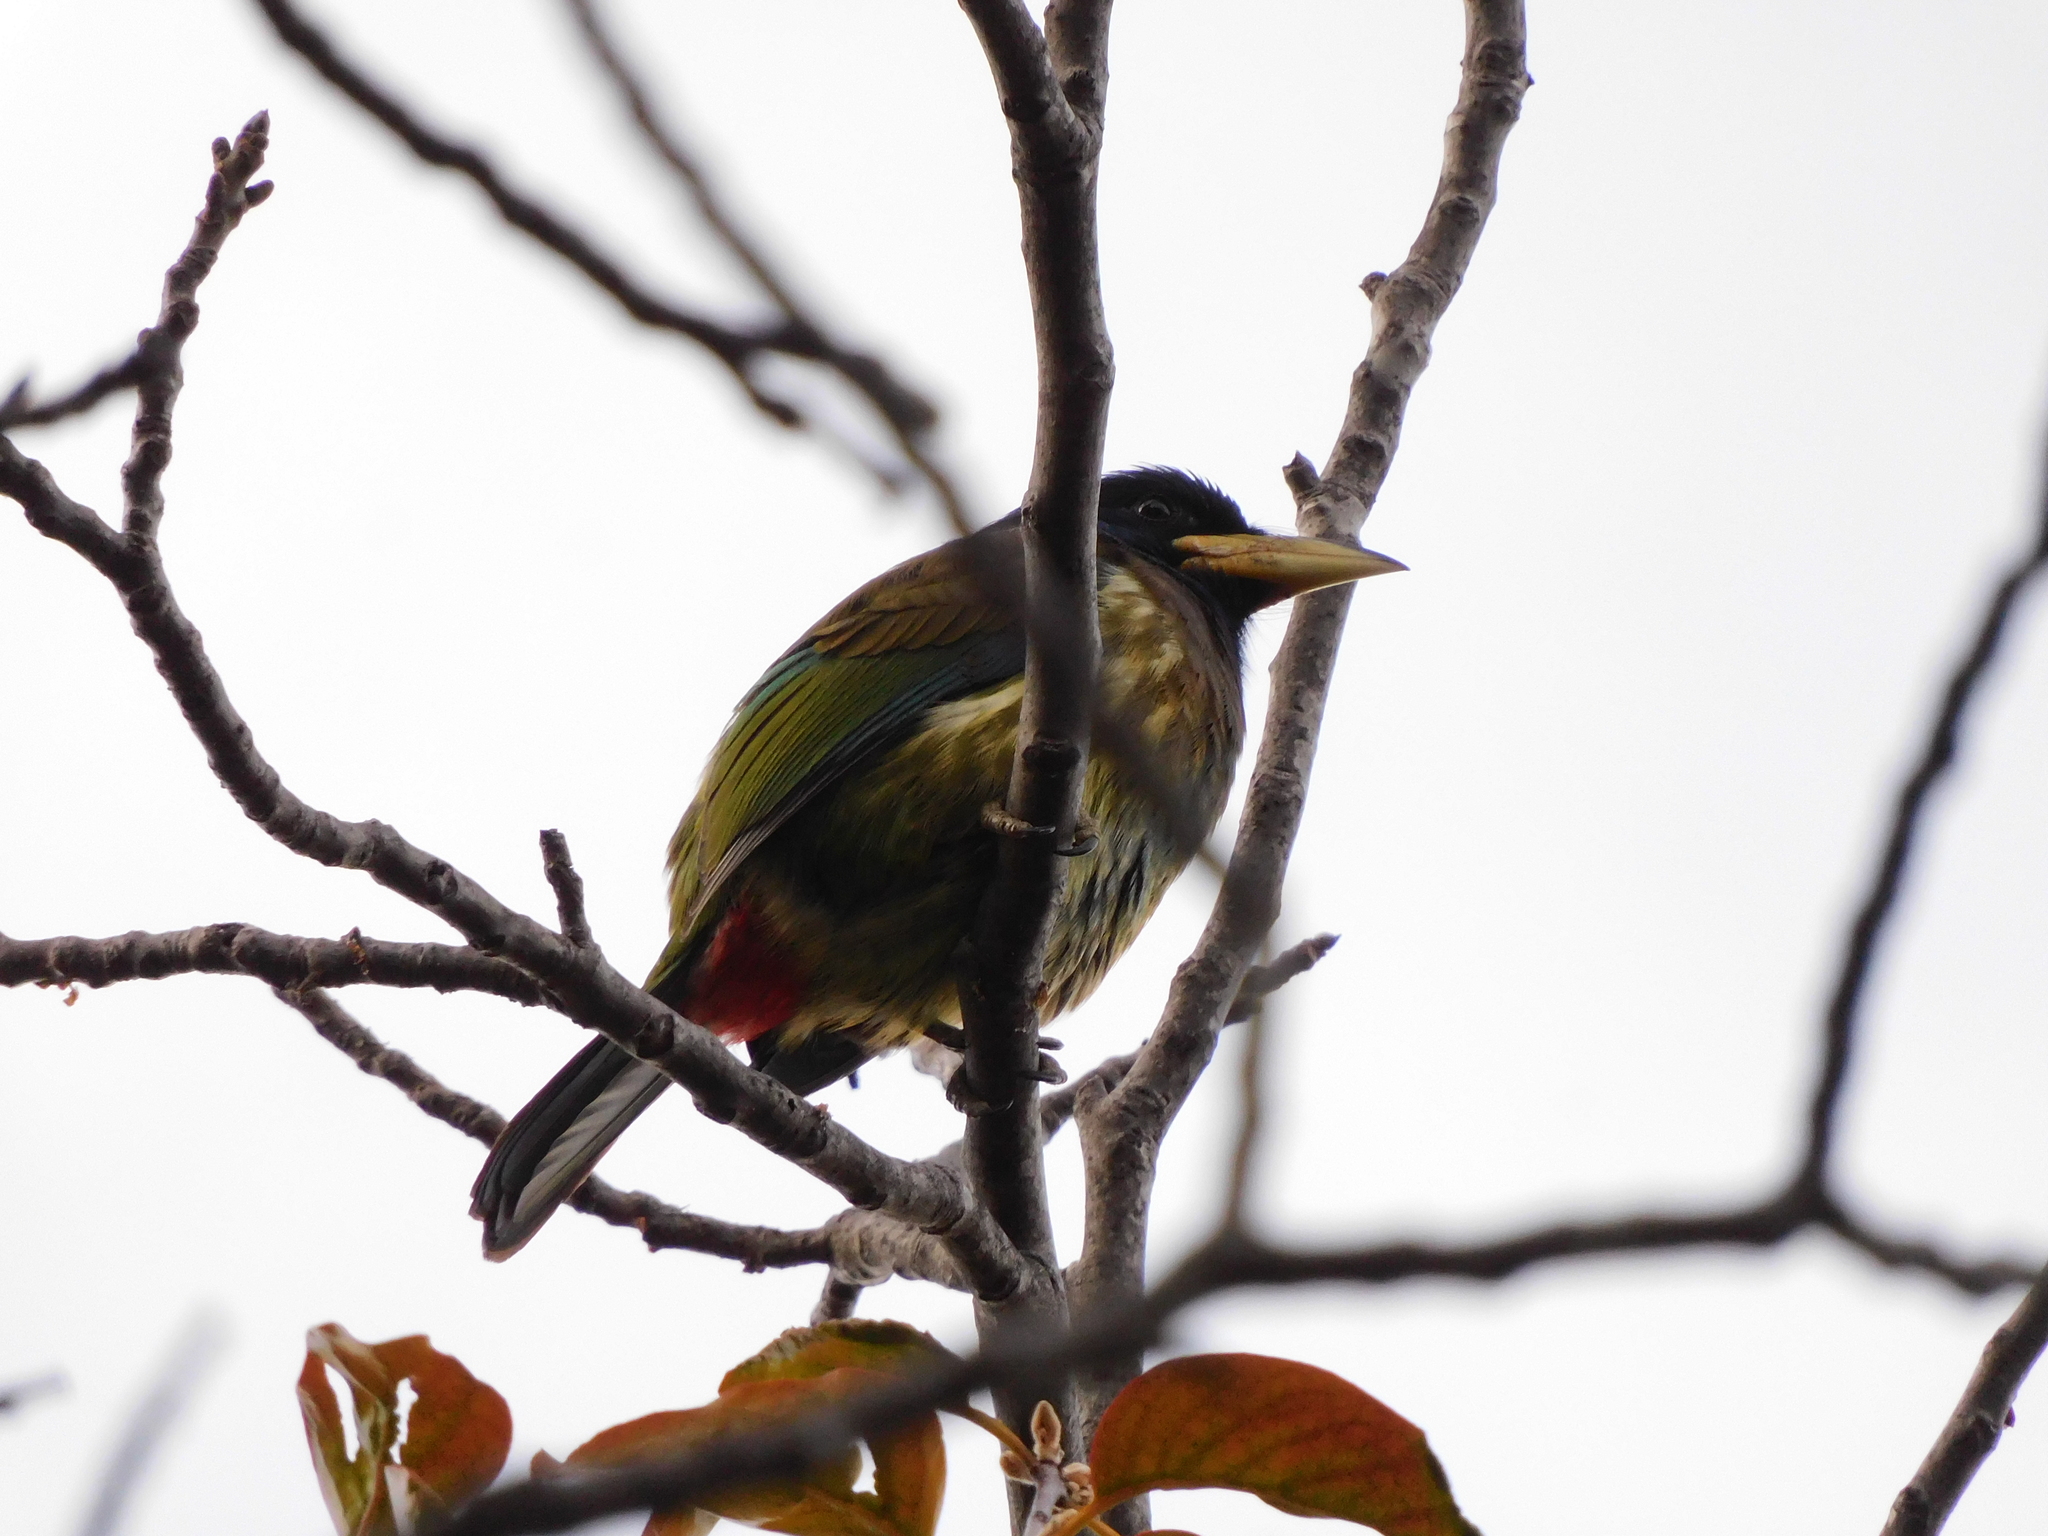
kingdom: Animalia
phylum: Chordata
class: Aves
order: Piciformes
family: Megalaimidae
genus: Psilopogon
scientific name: Psilopogon virens
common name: Great barbet
